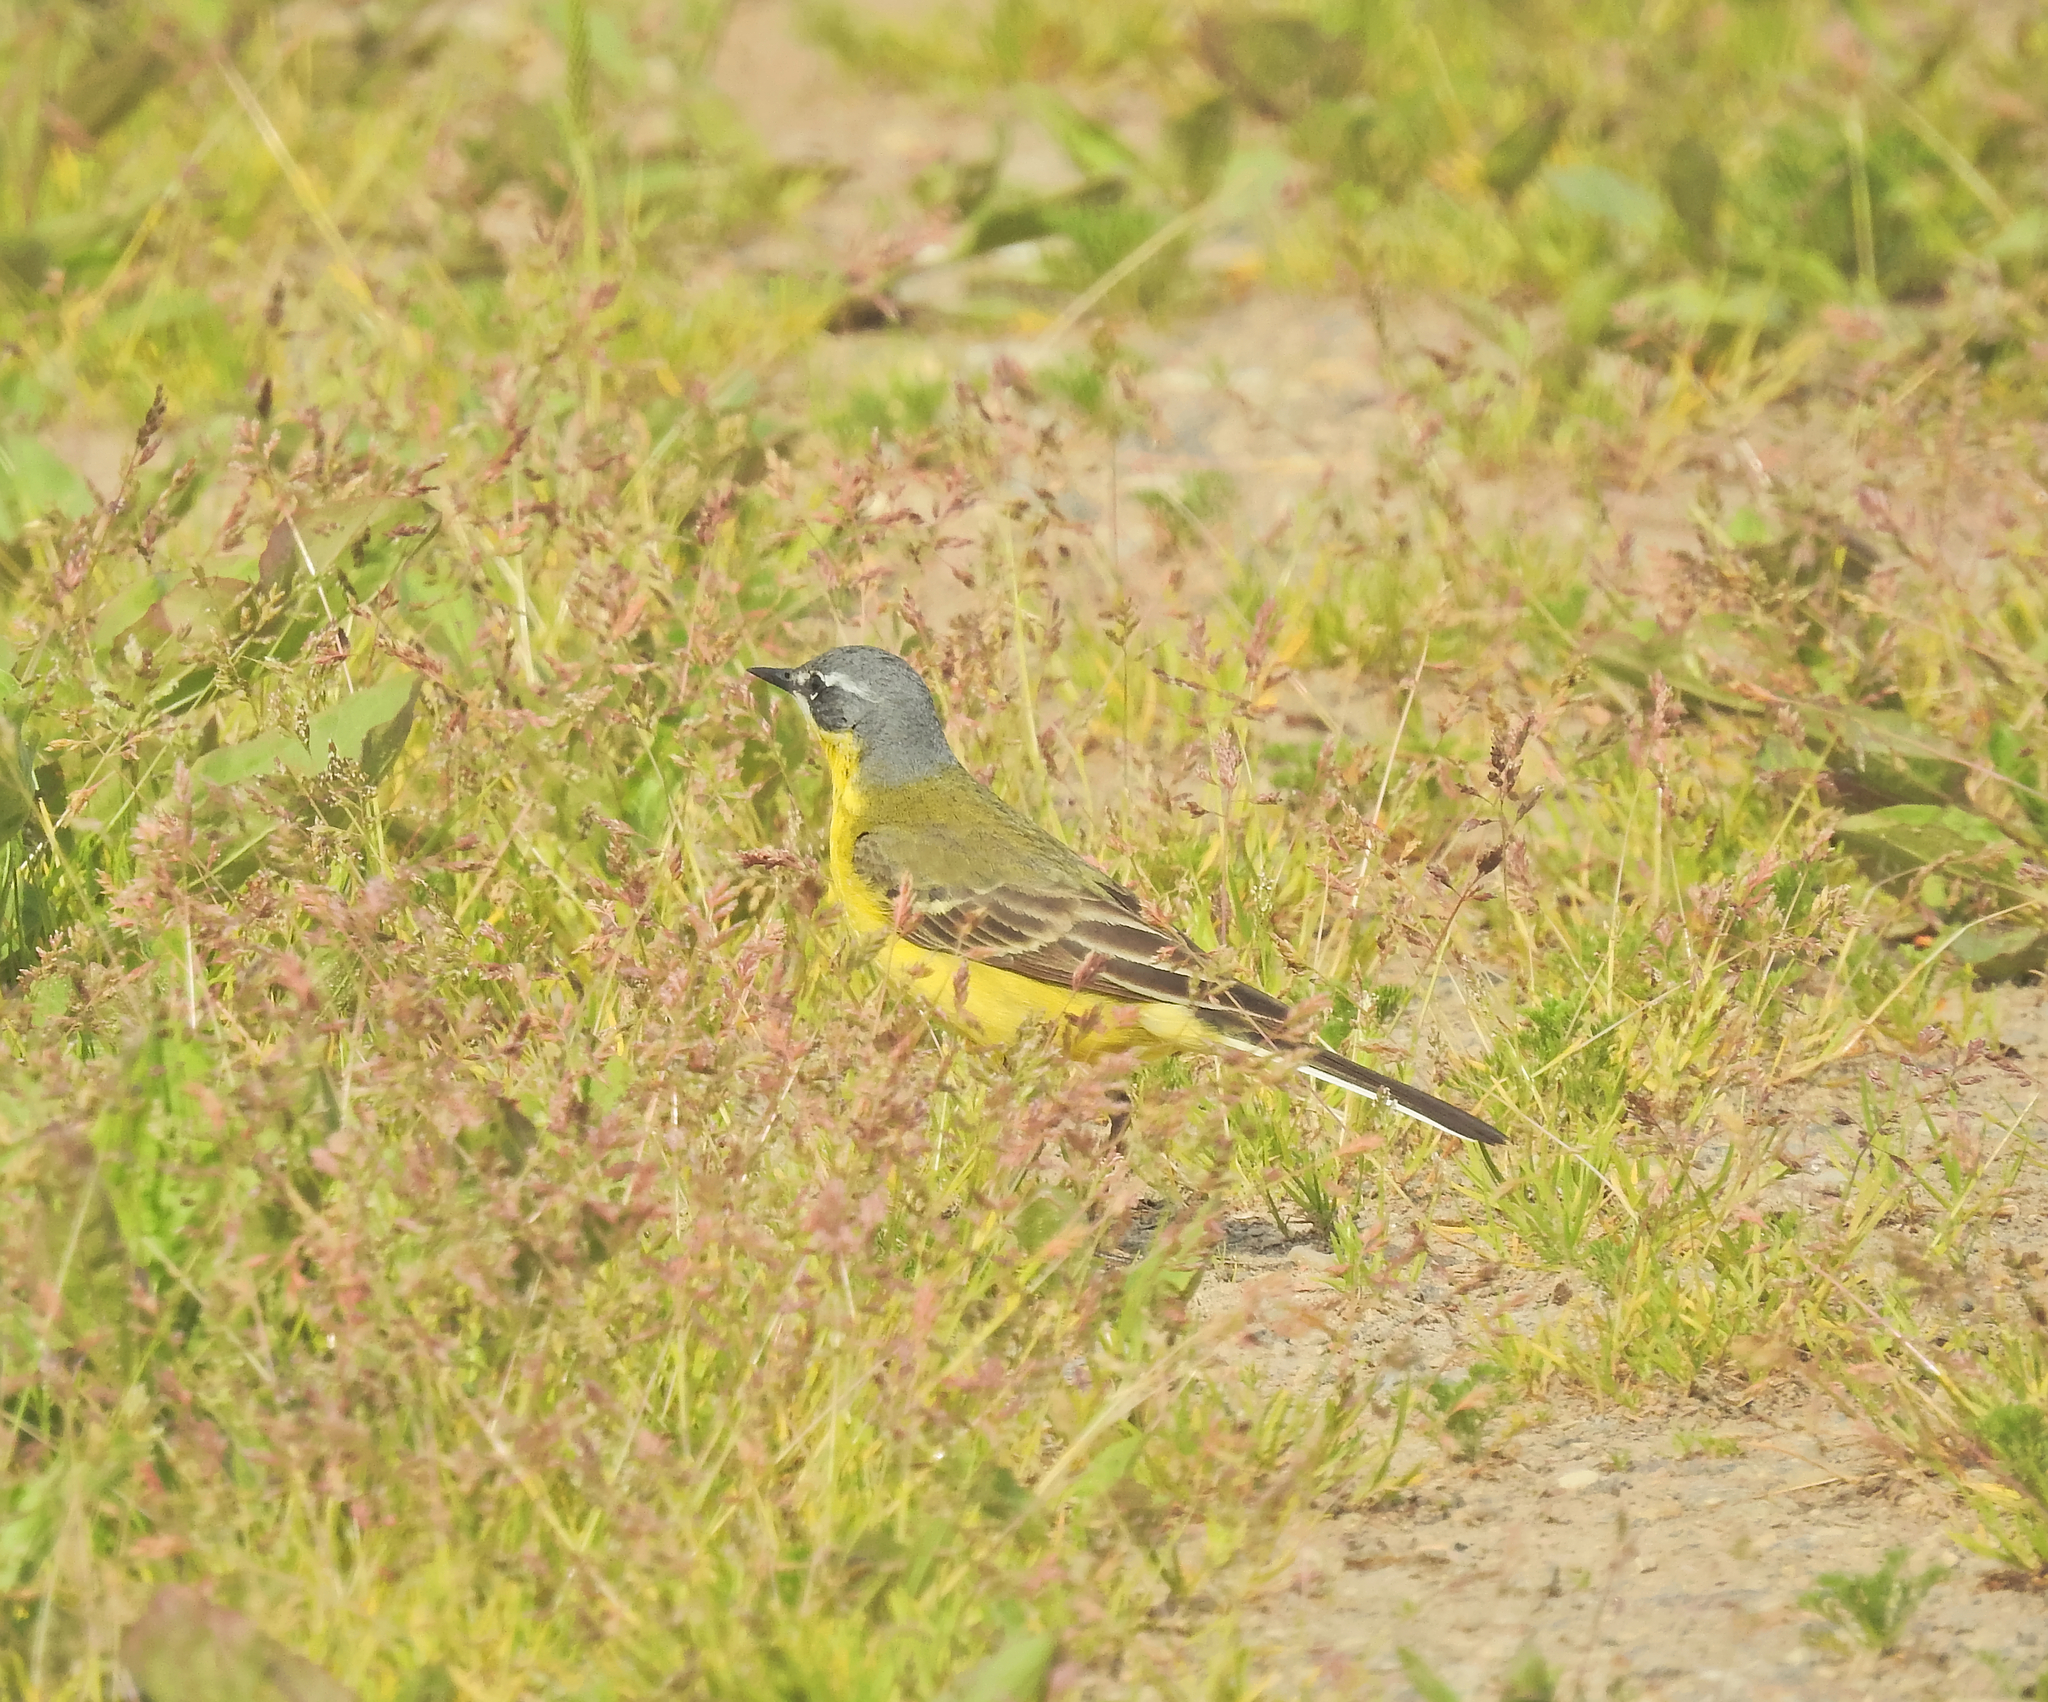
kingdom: Animalia
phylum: Chordata
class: Aves
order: Passeriformes
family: Motacillidae
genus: Motacilla
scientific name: Motacilla flava
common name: Western yellow wagtail
